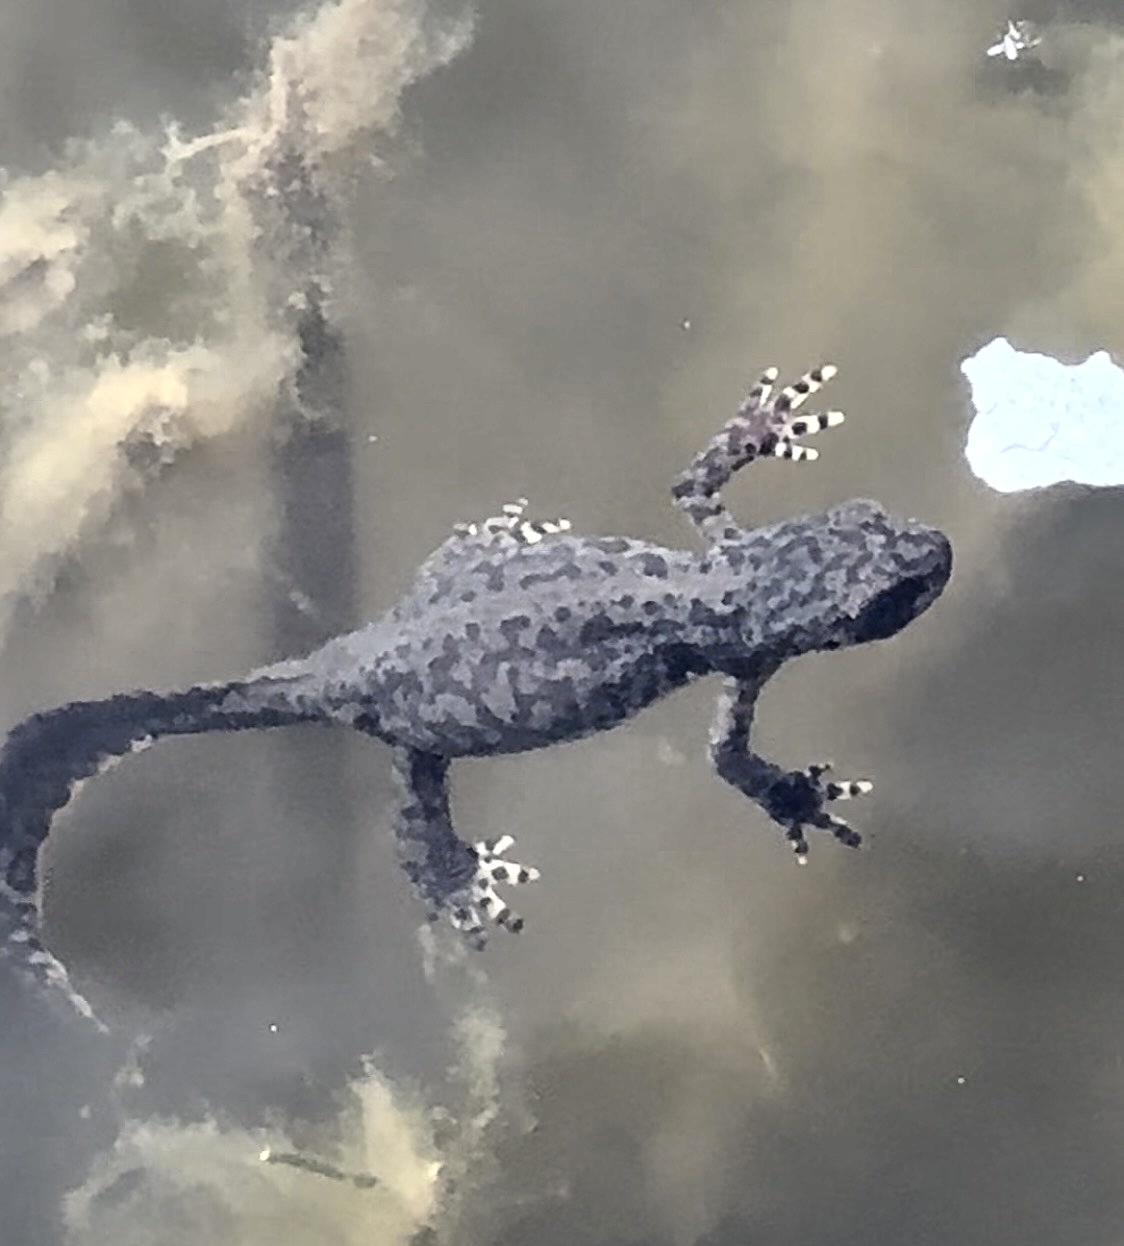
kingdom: Animalia
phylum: Chordata
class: Amphibia
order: Caudata
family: Salamandridae
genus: Ichthyosaura
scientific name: Ichthyosaura alpestris
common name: Alpine newt
